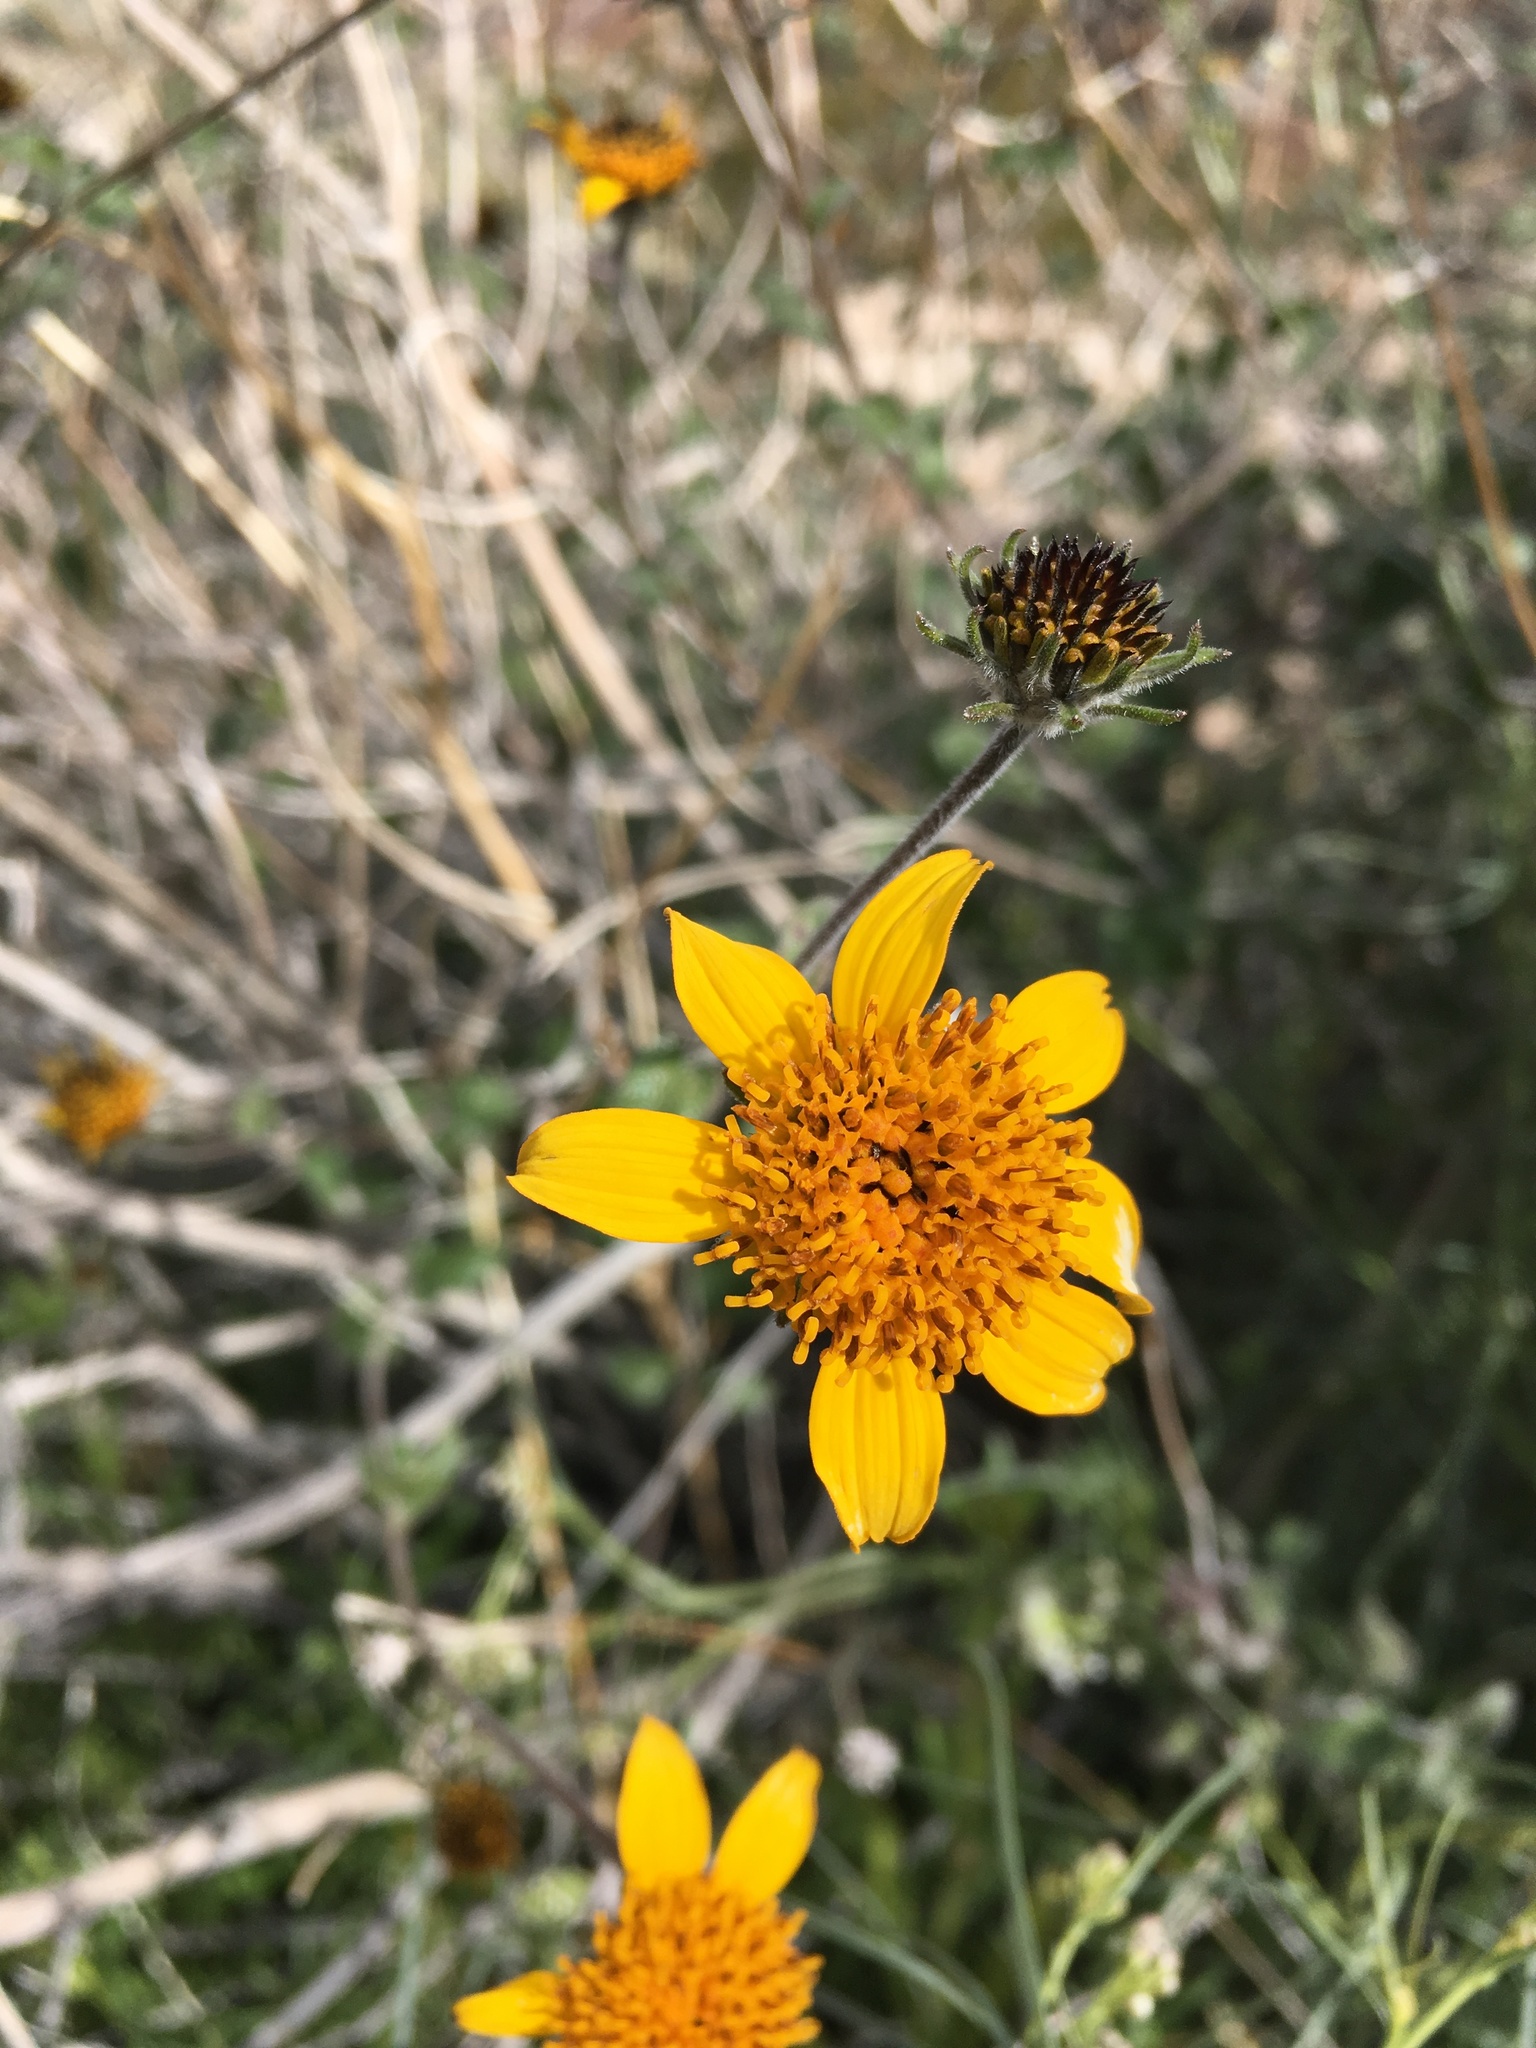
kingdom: Plantae
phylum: Tracheophyta
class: Magnoliopsida
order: Asterales
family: Asteraceae
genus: Bahiopsis
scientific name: Bahiopsis parishii
